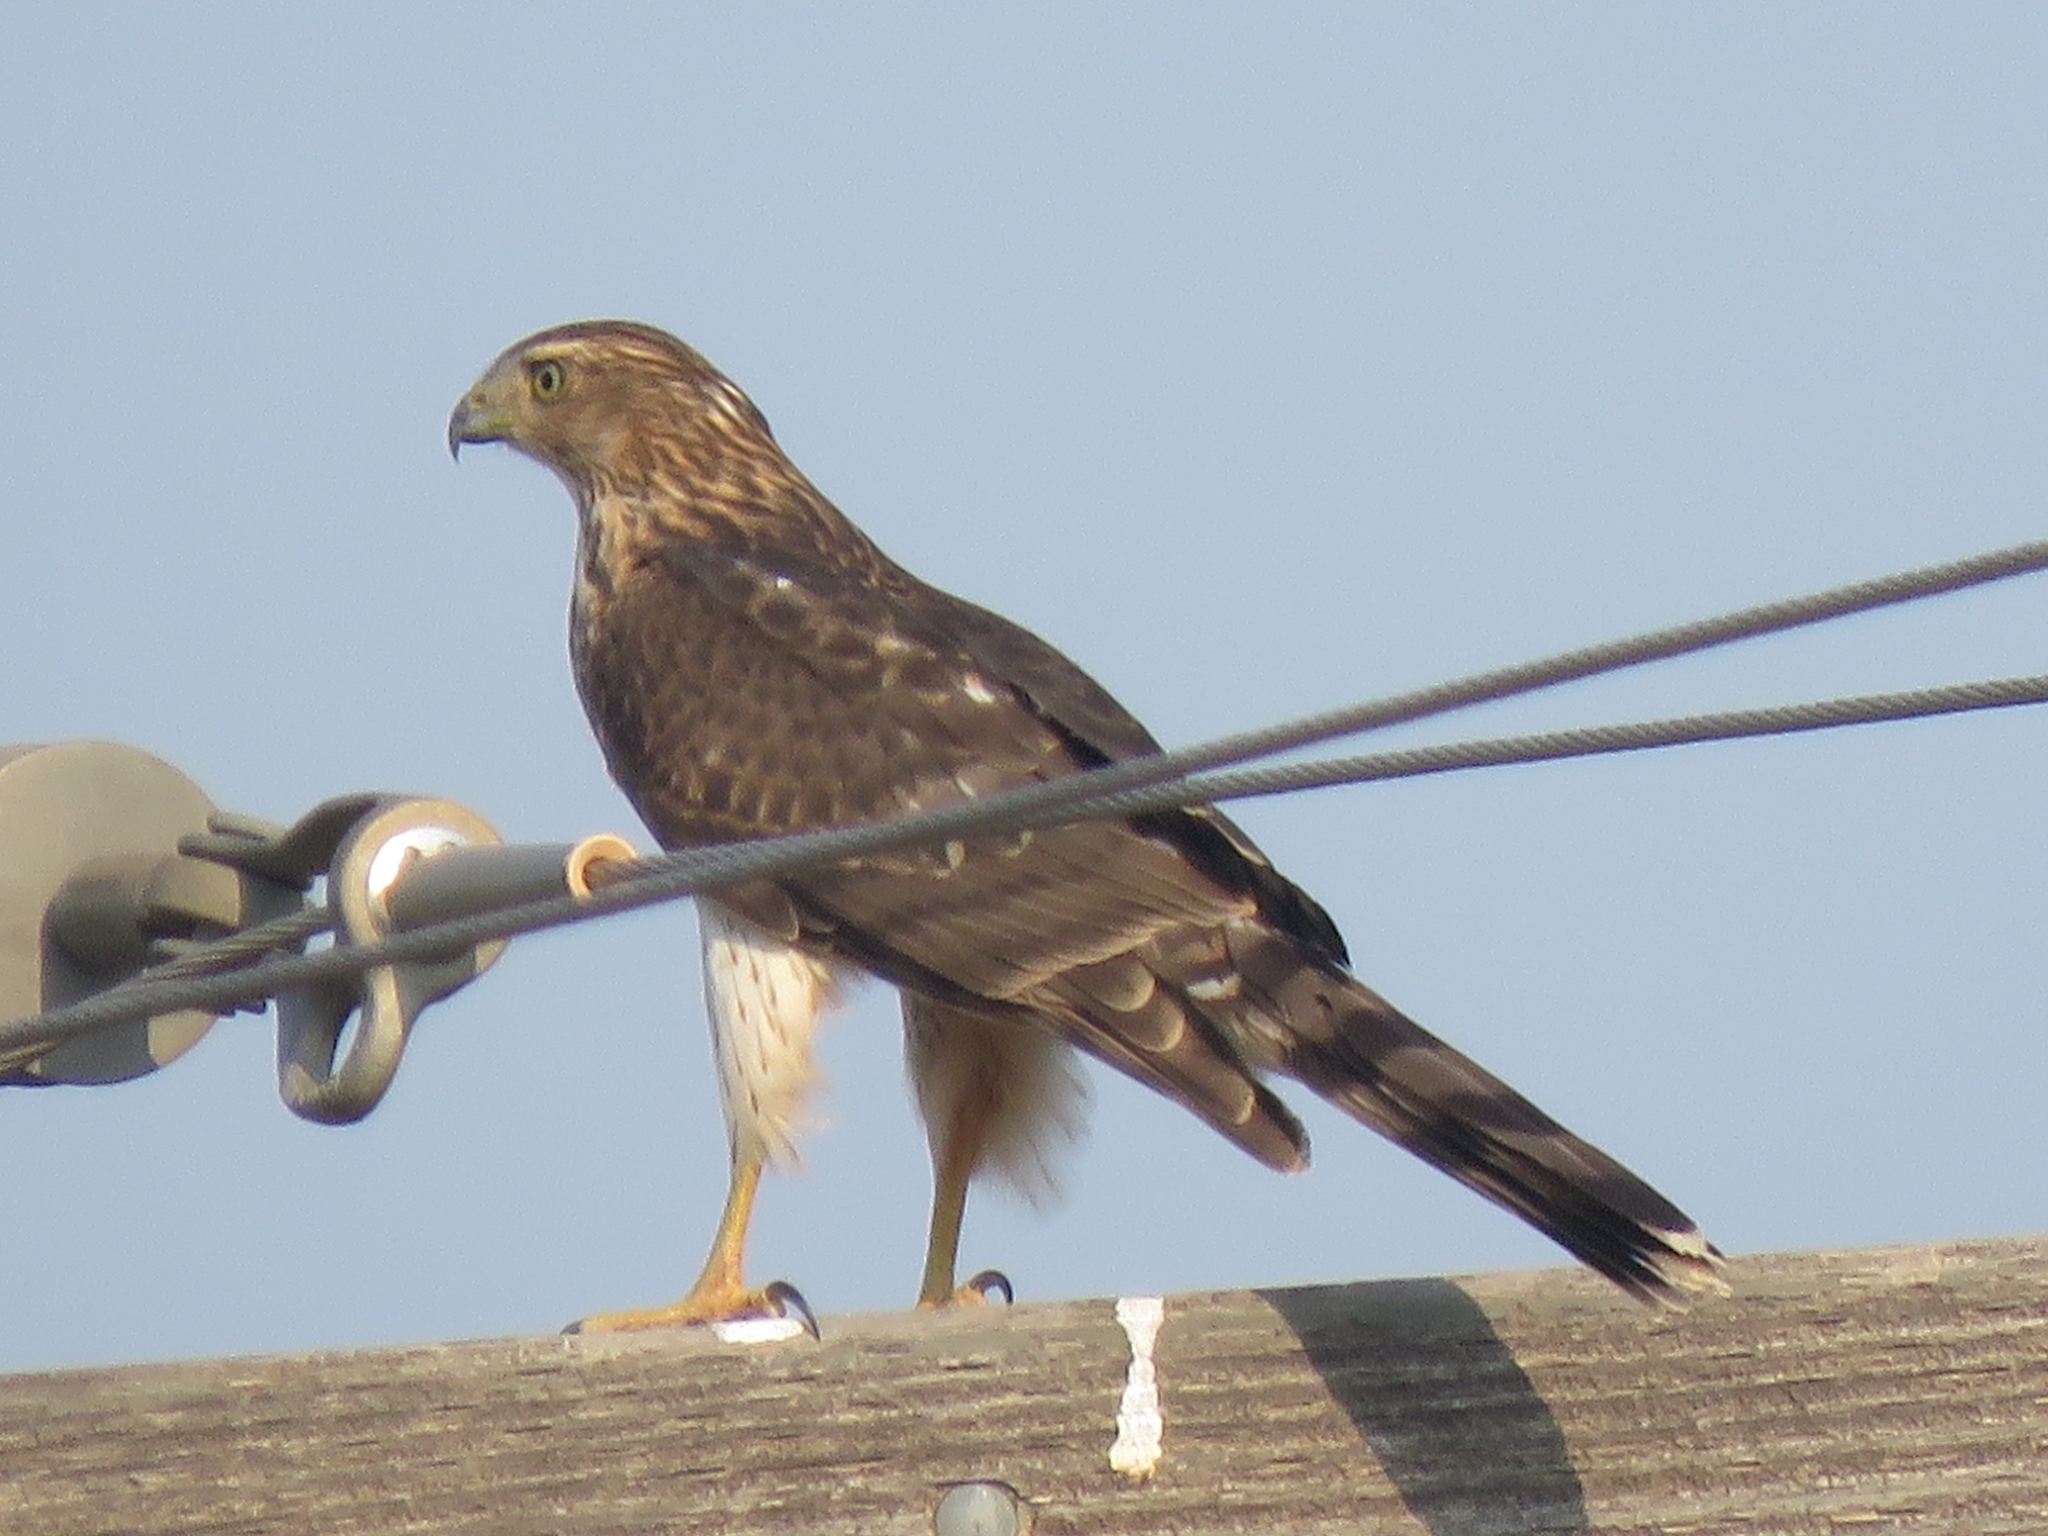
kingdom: Animalia
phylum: Chordata
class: Aves
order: Accipitriformes
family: Accipitridae
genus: Accipiter
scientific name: Accipiter cooperii
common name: Cooper's hawk
